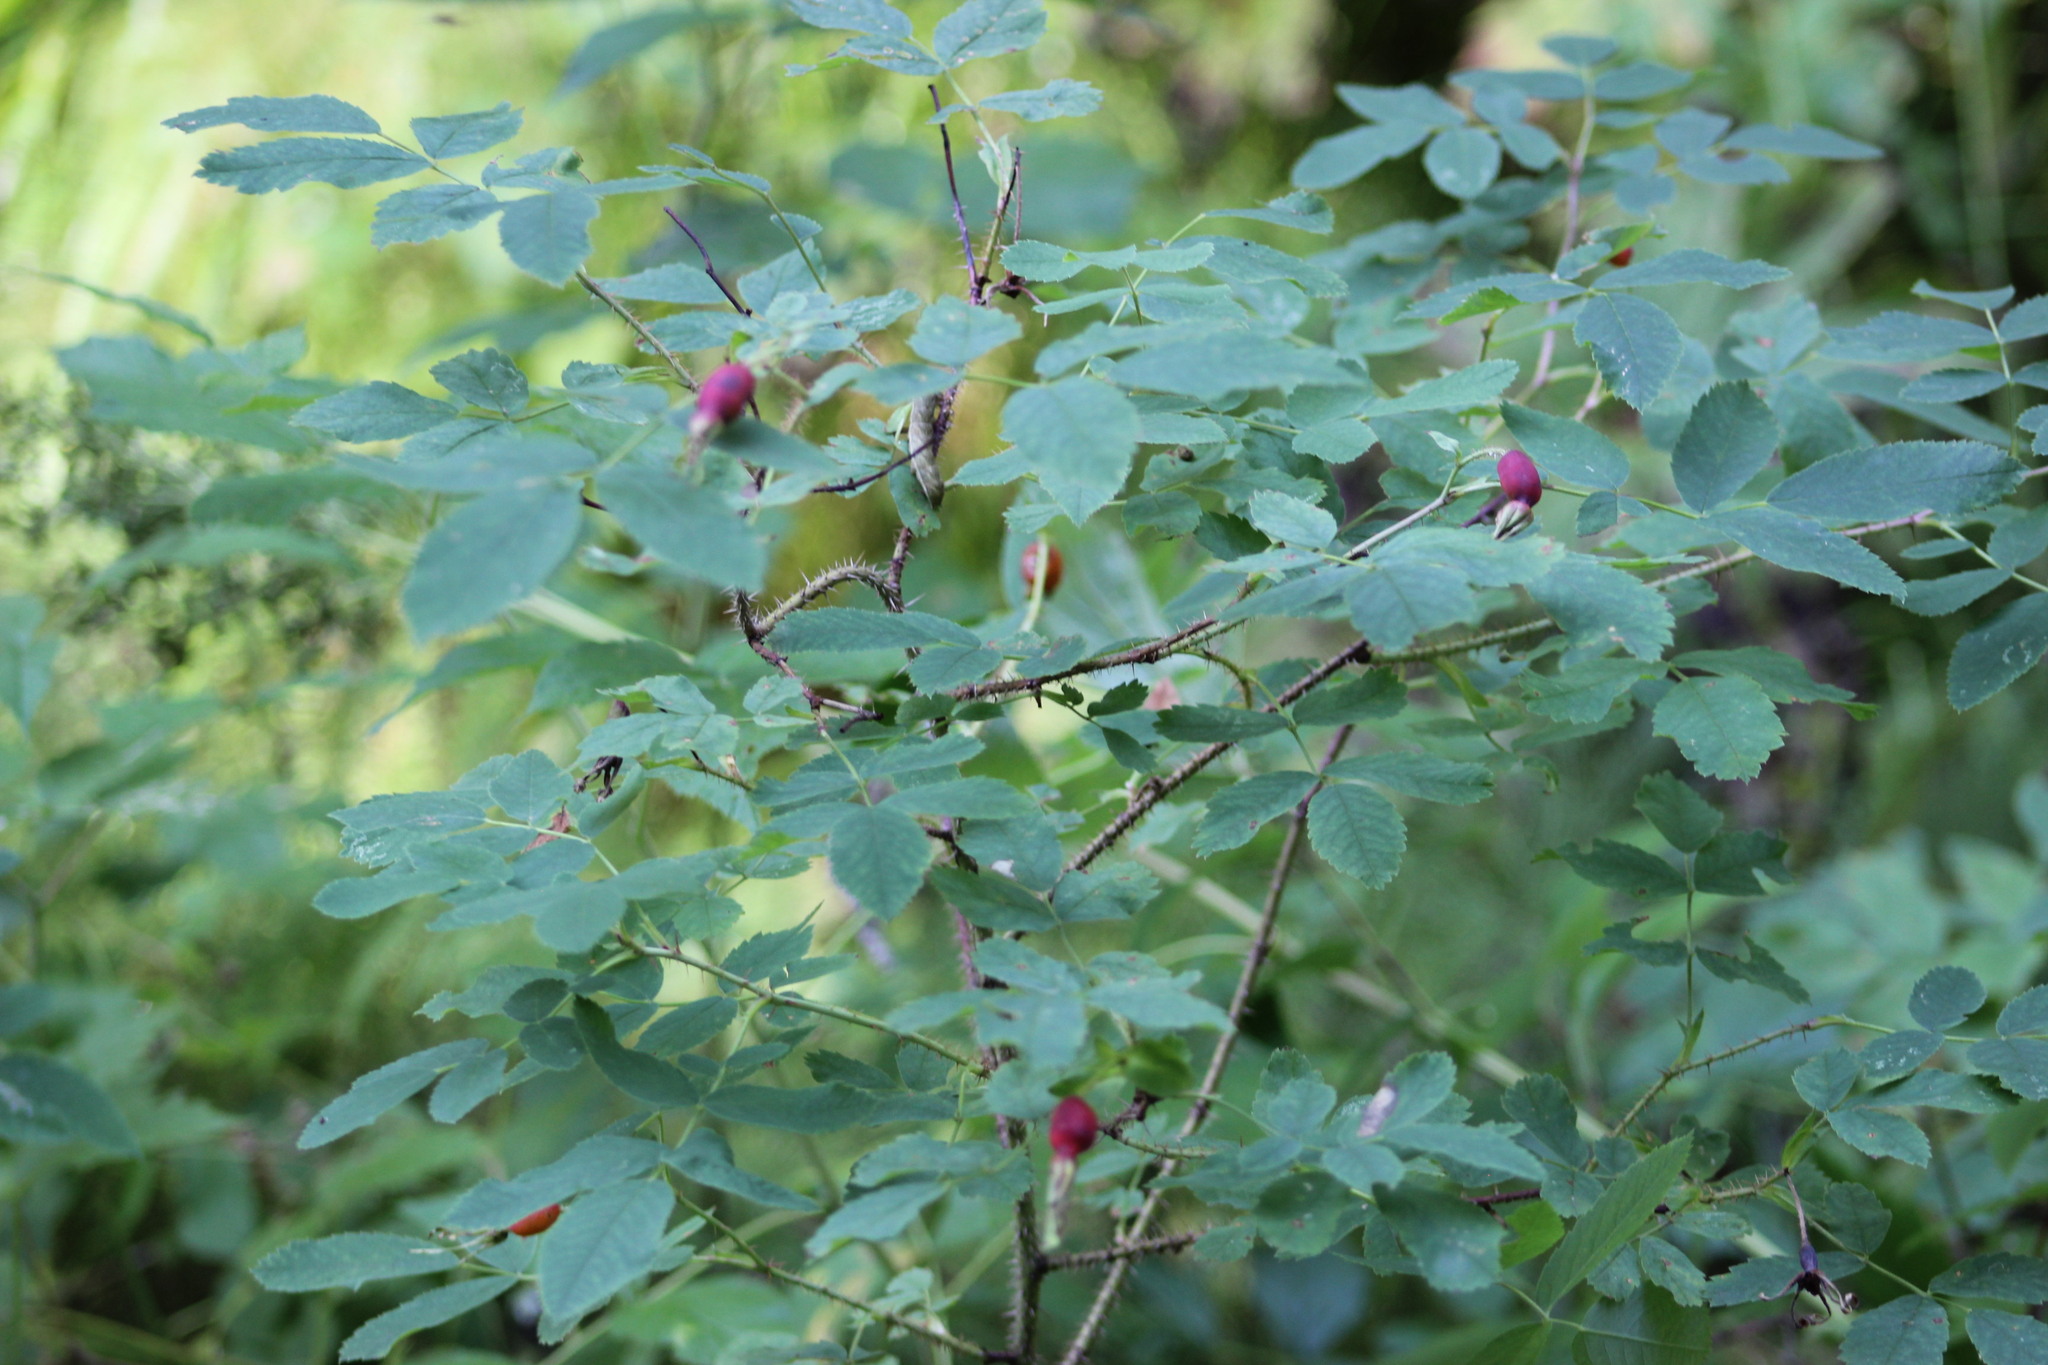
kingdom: Plantae
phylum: Tracheophyta
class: Magnoliopsida
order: Rosales
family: Rosaceae
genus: Rosa
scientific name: Rosa acicularis
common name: Prickly rose
